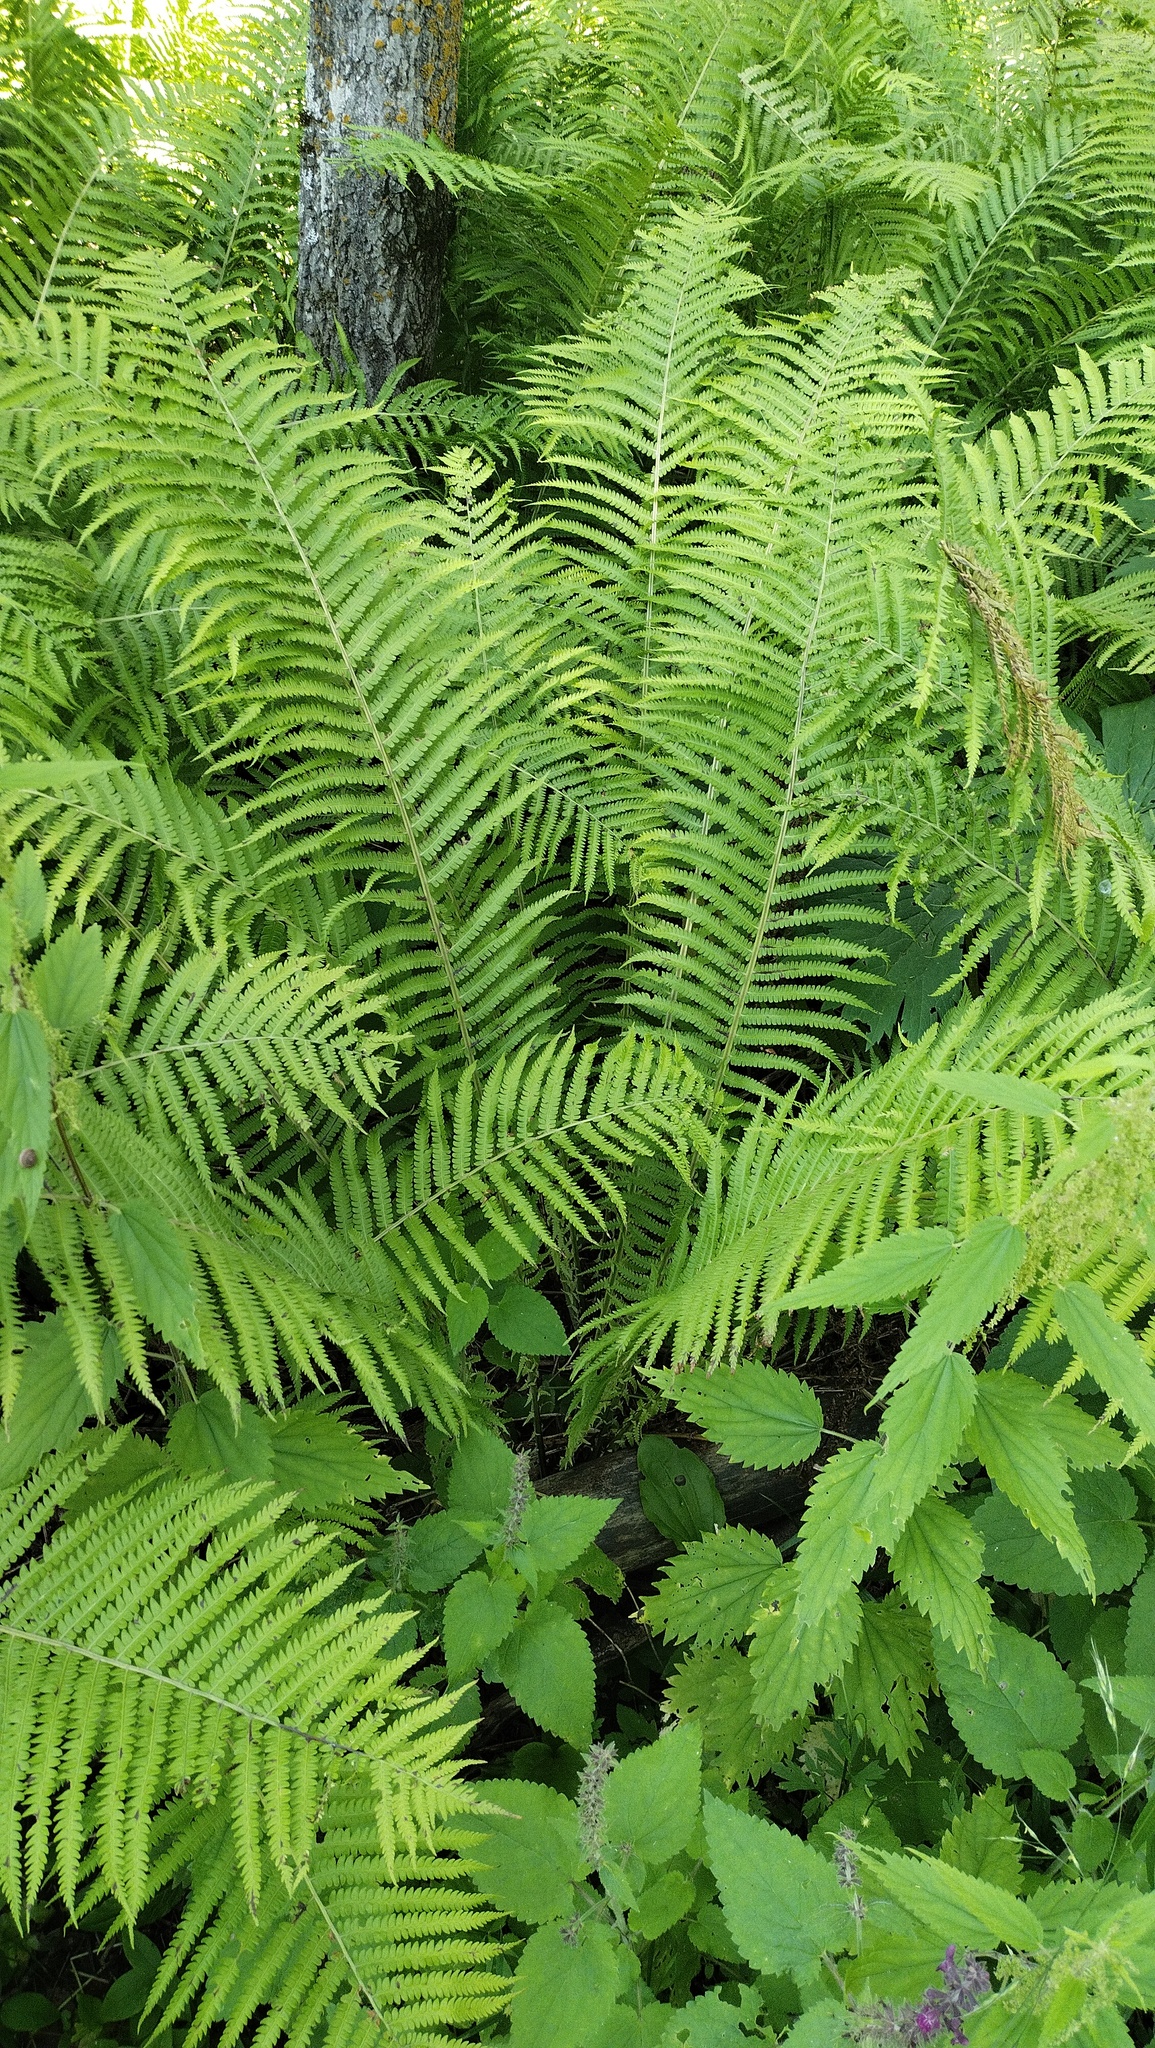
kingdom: Plantae
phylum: Tracheophyta
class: Polypodiopsida
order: Polypodiales
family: Onocleaceae
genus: Matteuccia
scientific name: Matteuccia struthiopteris
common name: Ostrich fern
